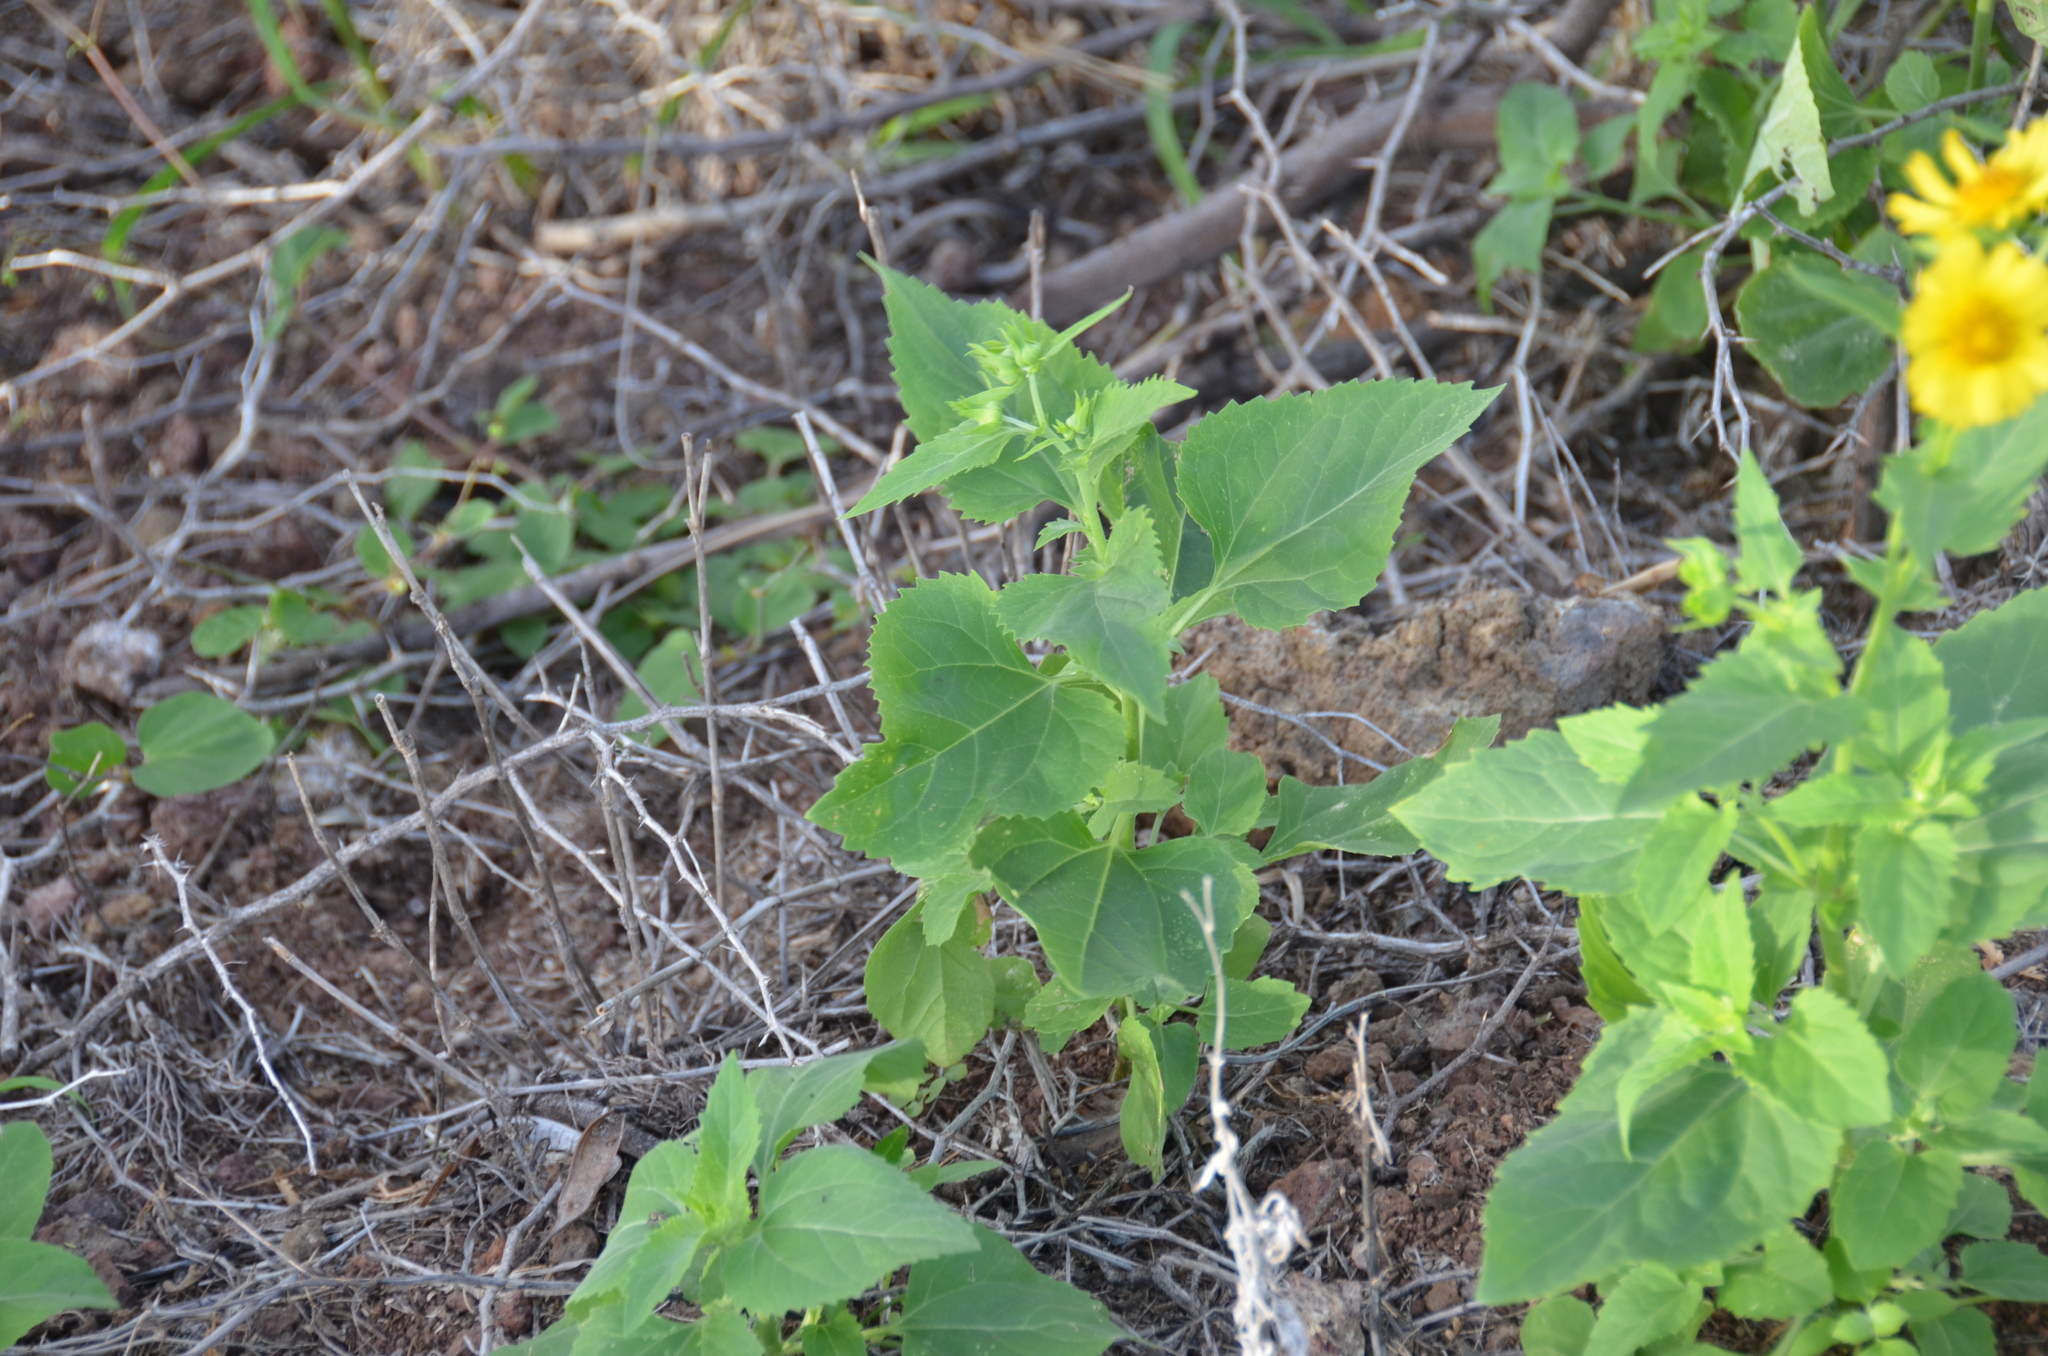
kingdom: Plantae
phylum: Tracheophyta
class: Magnoliopsida
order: Asterales
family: Asteraceae
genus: Verbesina
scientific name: Verbesina encelioides
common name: Golden crownbeard
